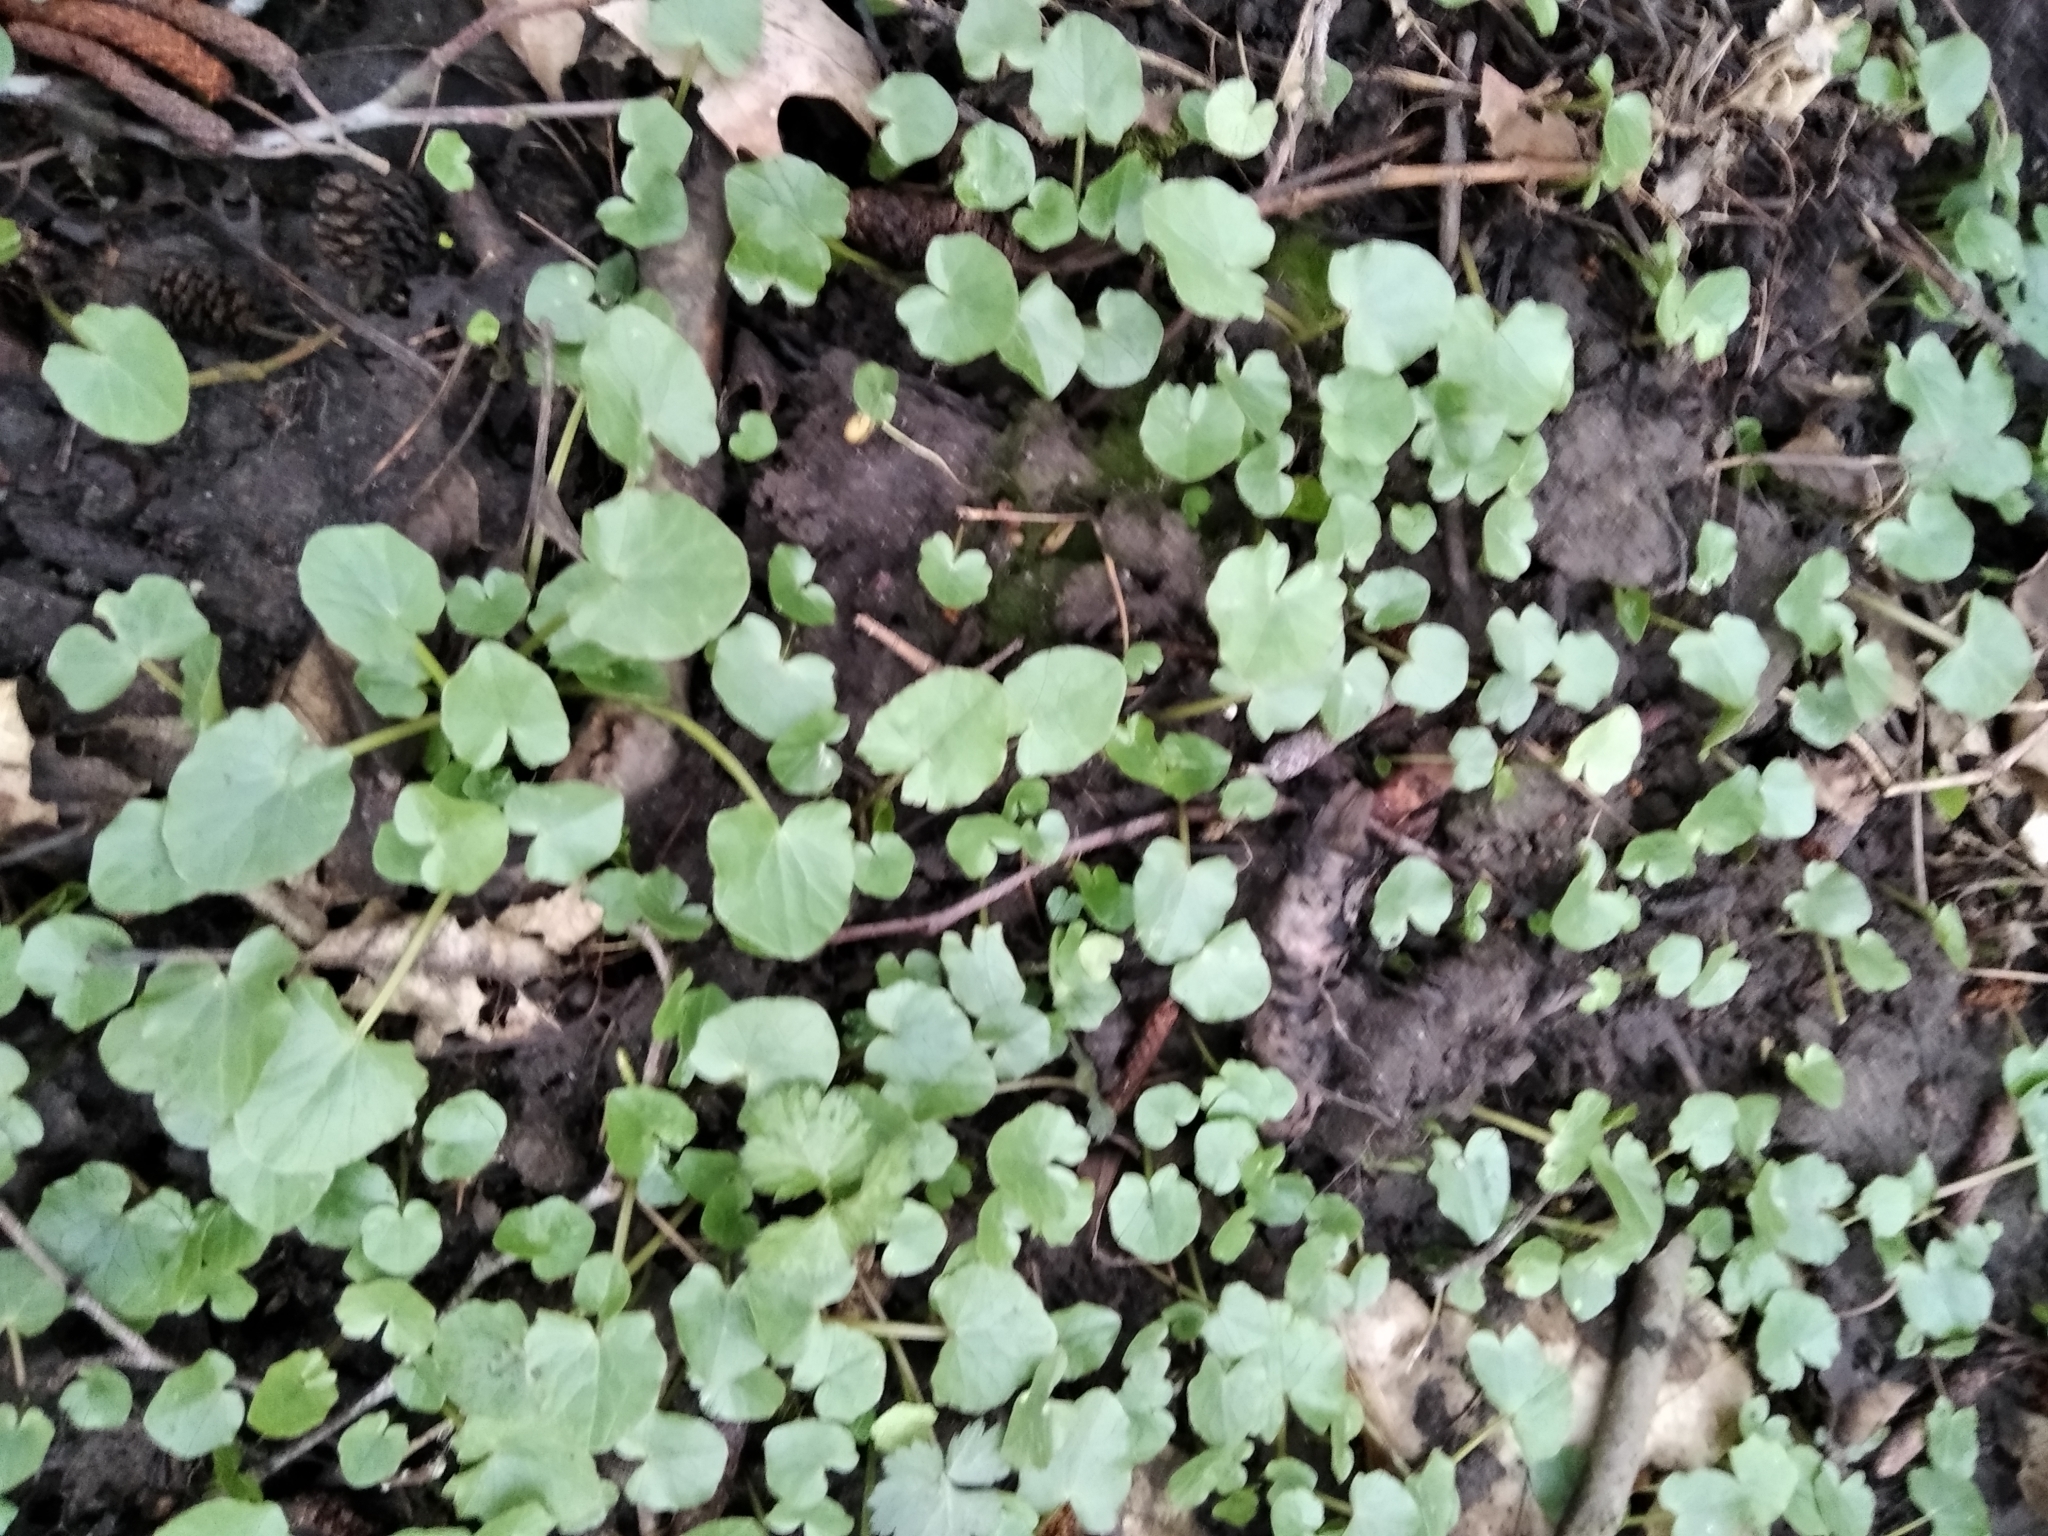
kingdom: Plantae
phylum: Tracheophyta
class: Magnoliopsida
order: Ranunculales
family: Ranunculaceae
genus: Ficaria
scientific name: Ficaria verna
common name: Lesser celandine
